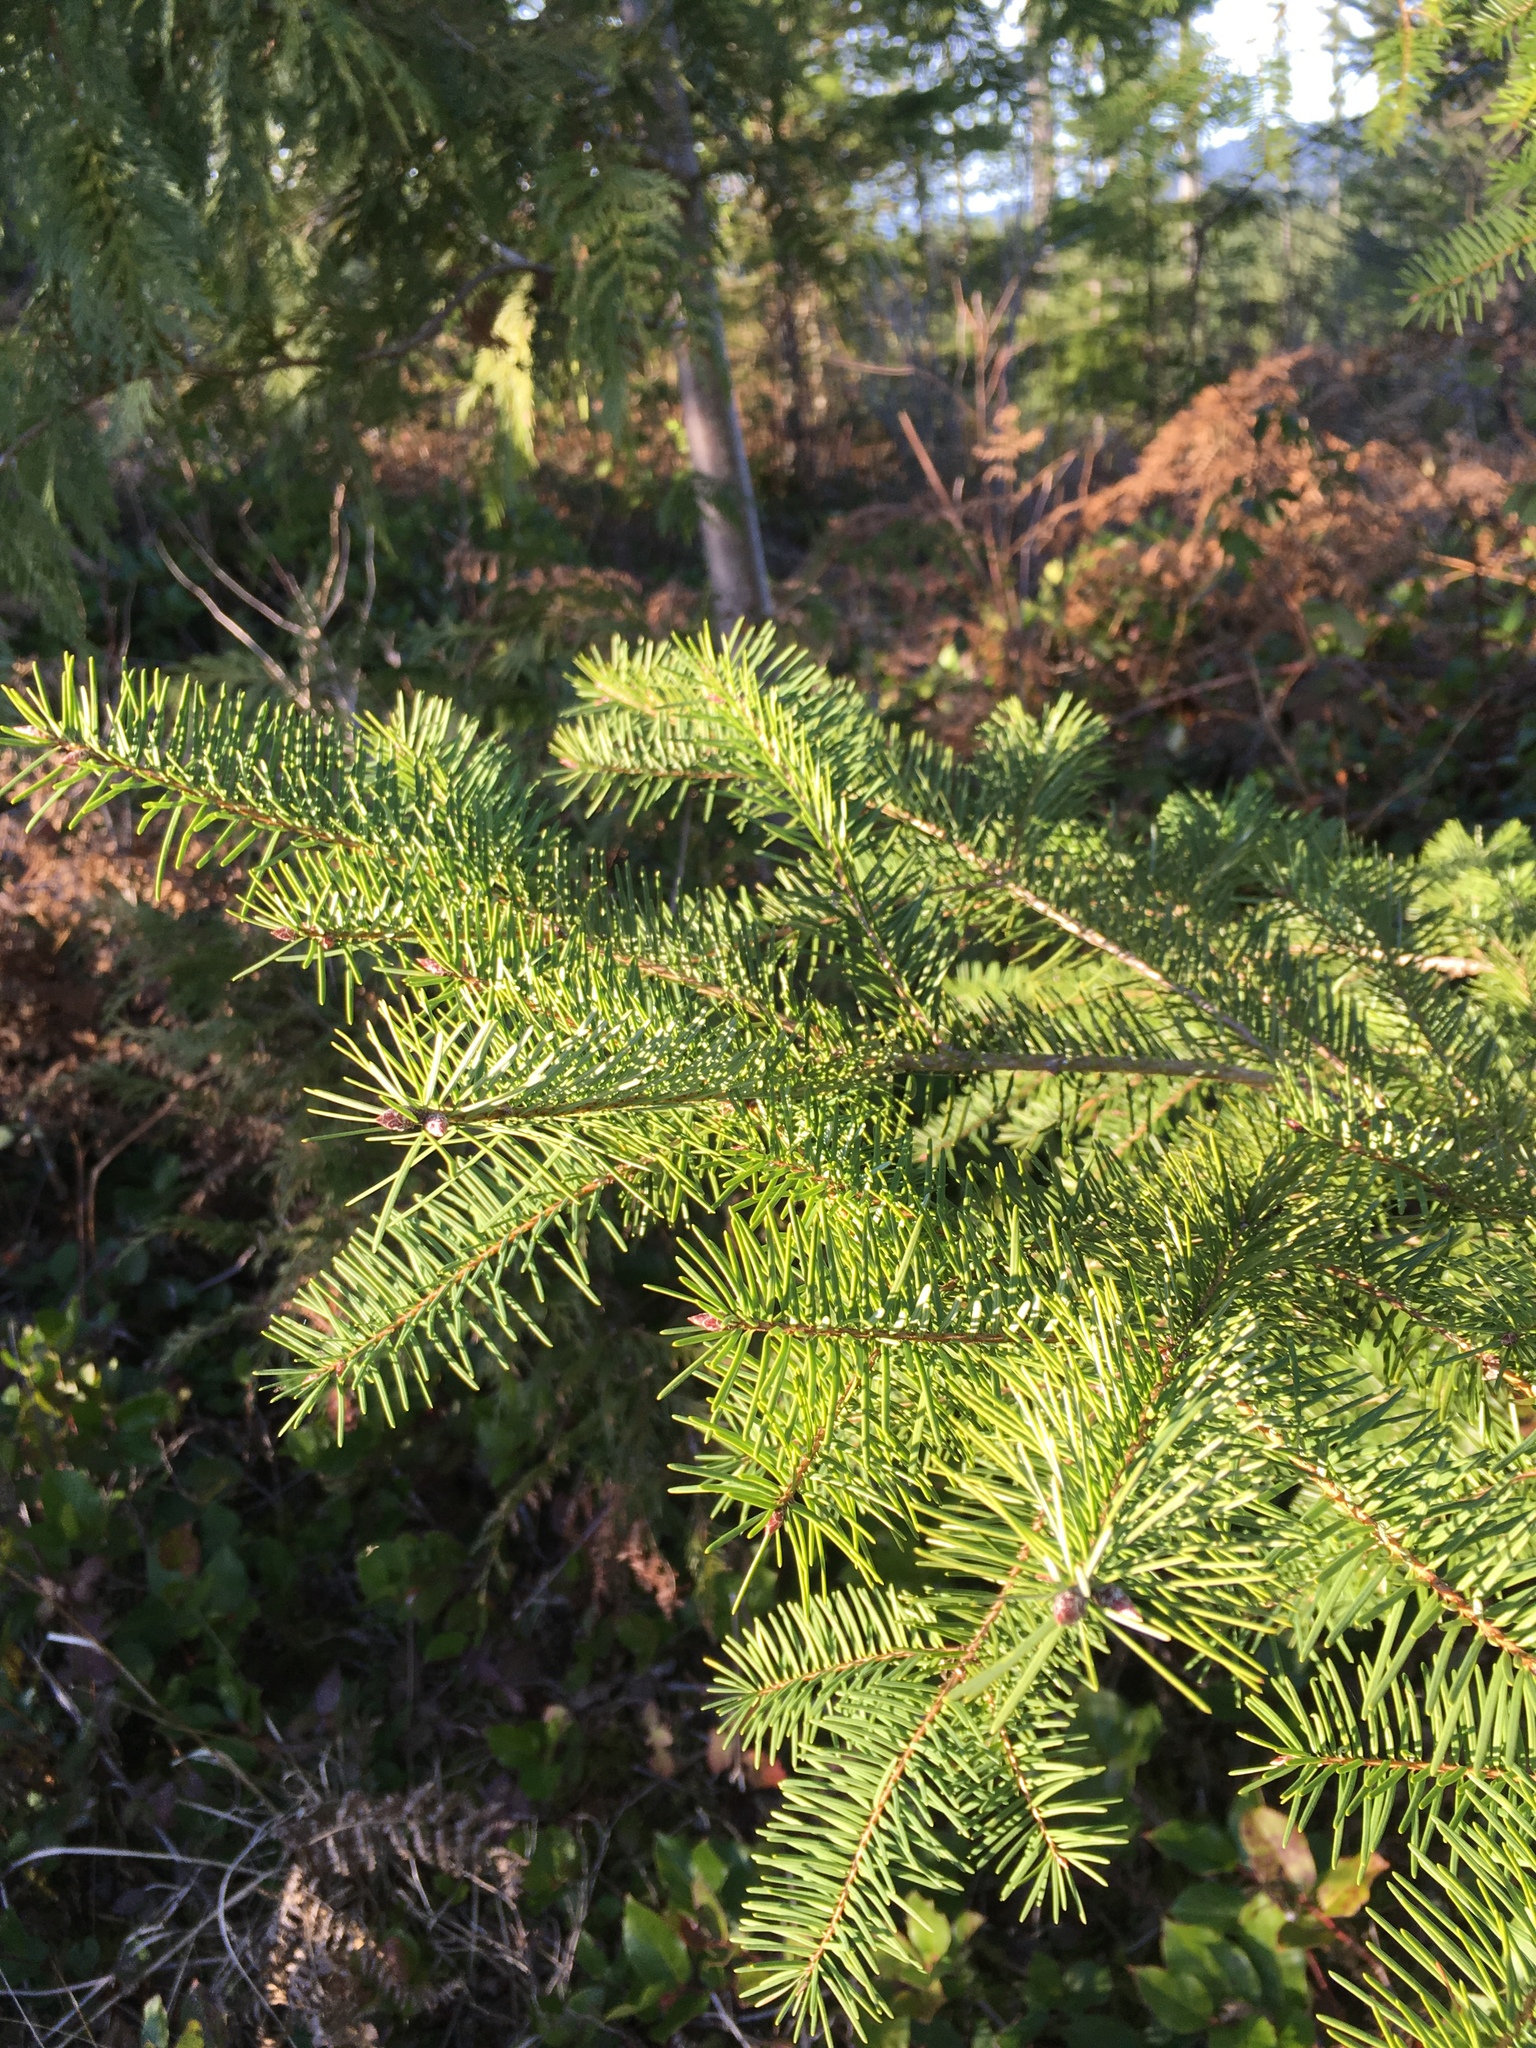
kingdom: Plantae
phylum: Tracheophyta
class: Pinopsida
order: Pinales
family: Pinaceae
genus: Pseudotsuga
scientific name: Pseudotsuga menziesii
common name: Douglas fir
